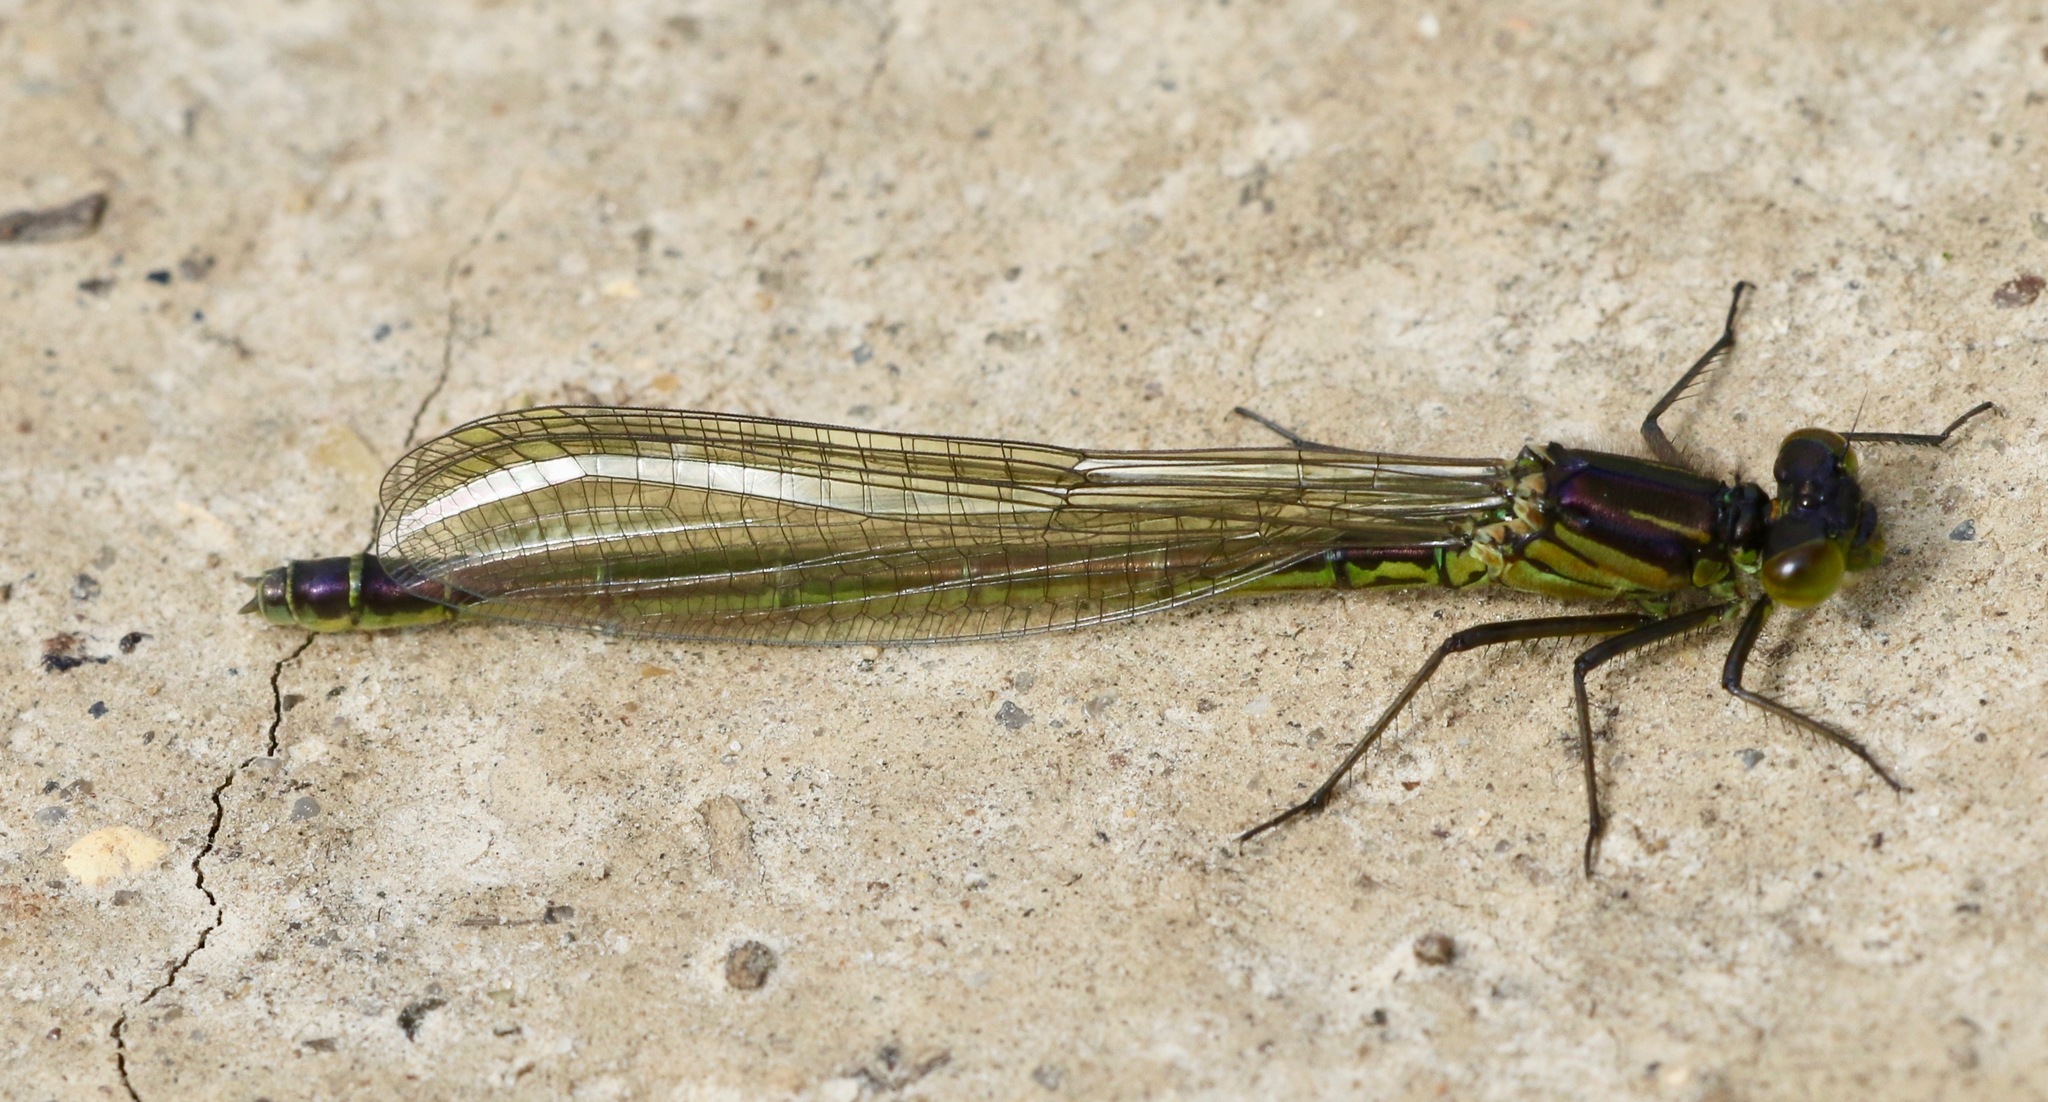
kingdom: Animalia
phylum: Arthropoda
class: Insecta
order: Odonata
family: Coenagrionidae
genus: Erythromma
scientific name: Erythromma najas
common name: Red-eyed damselfly
